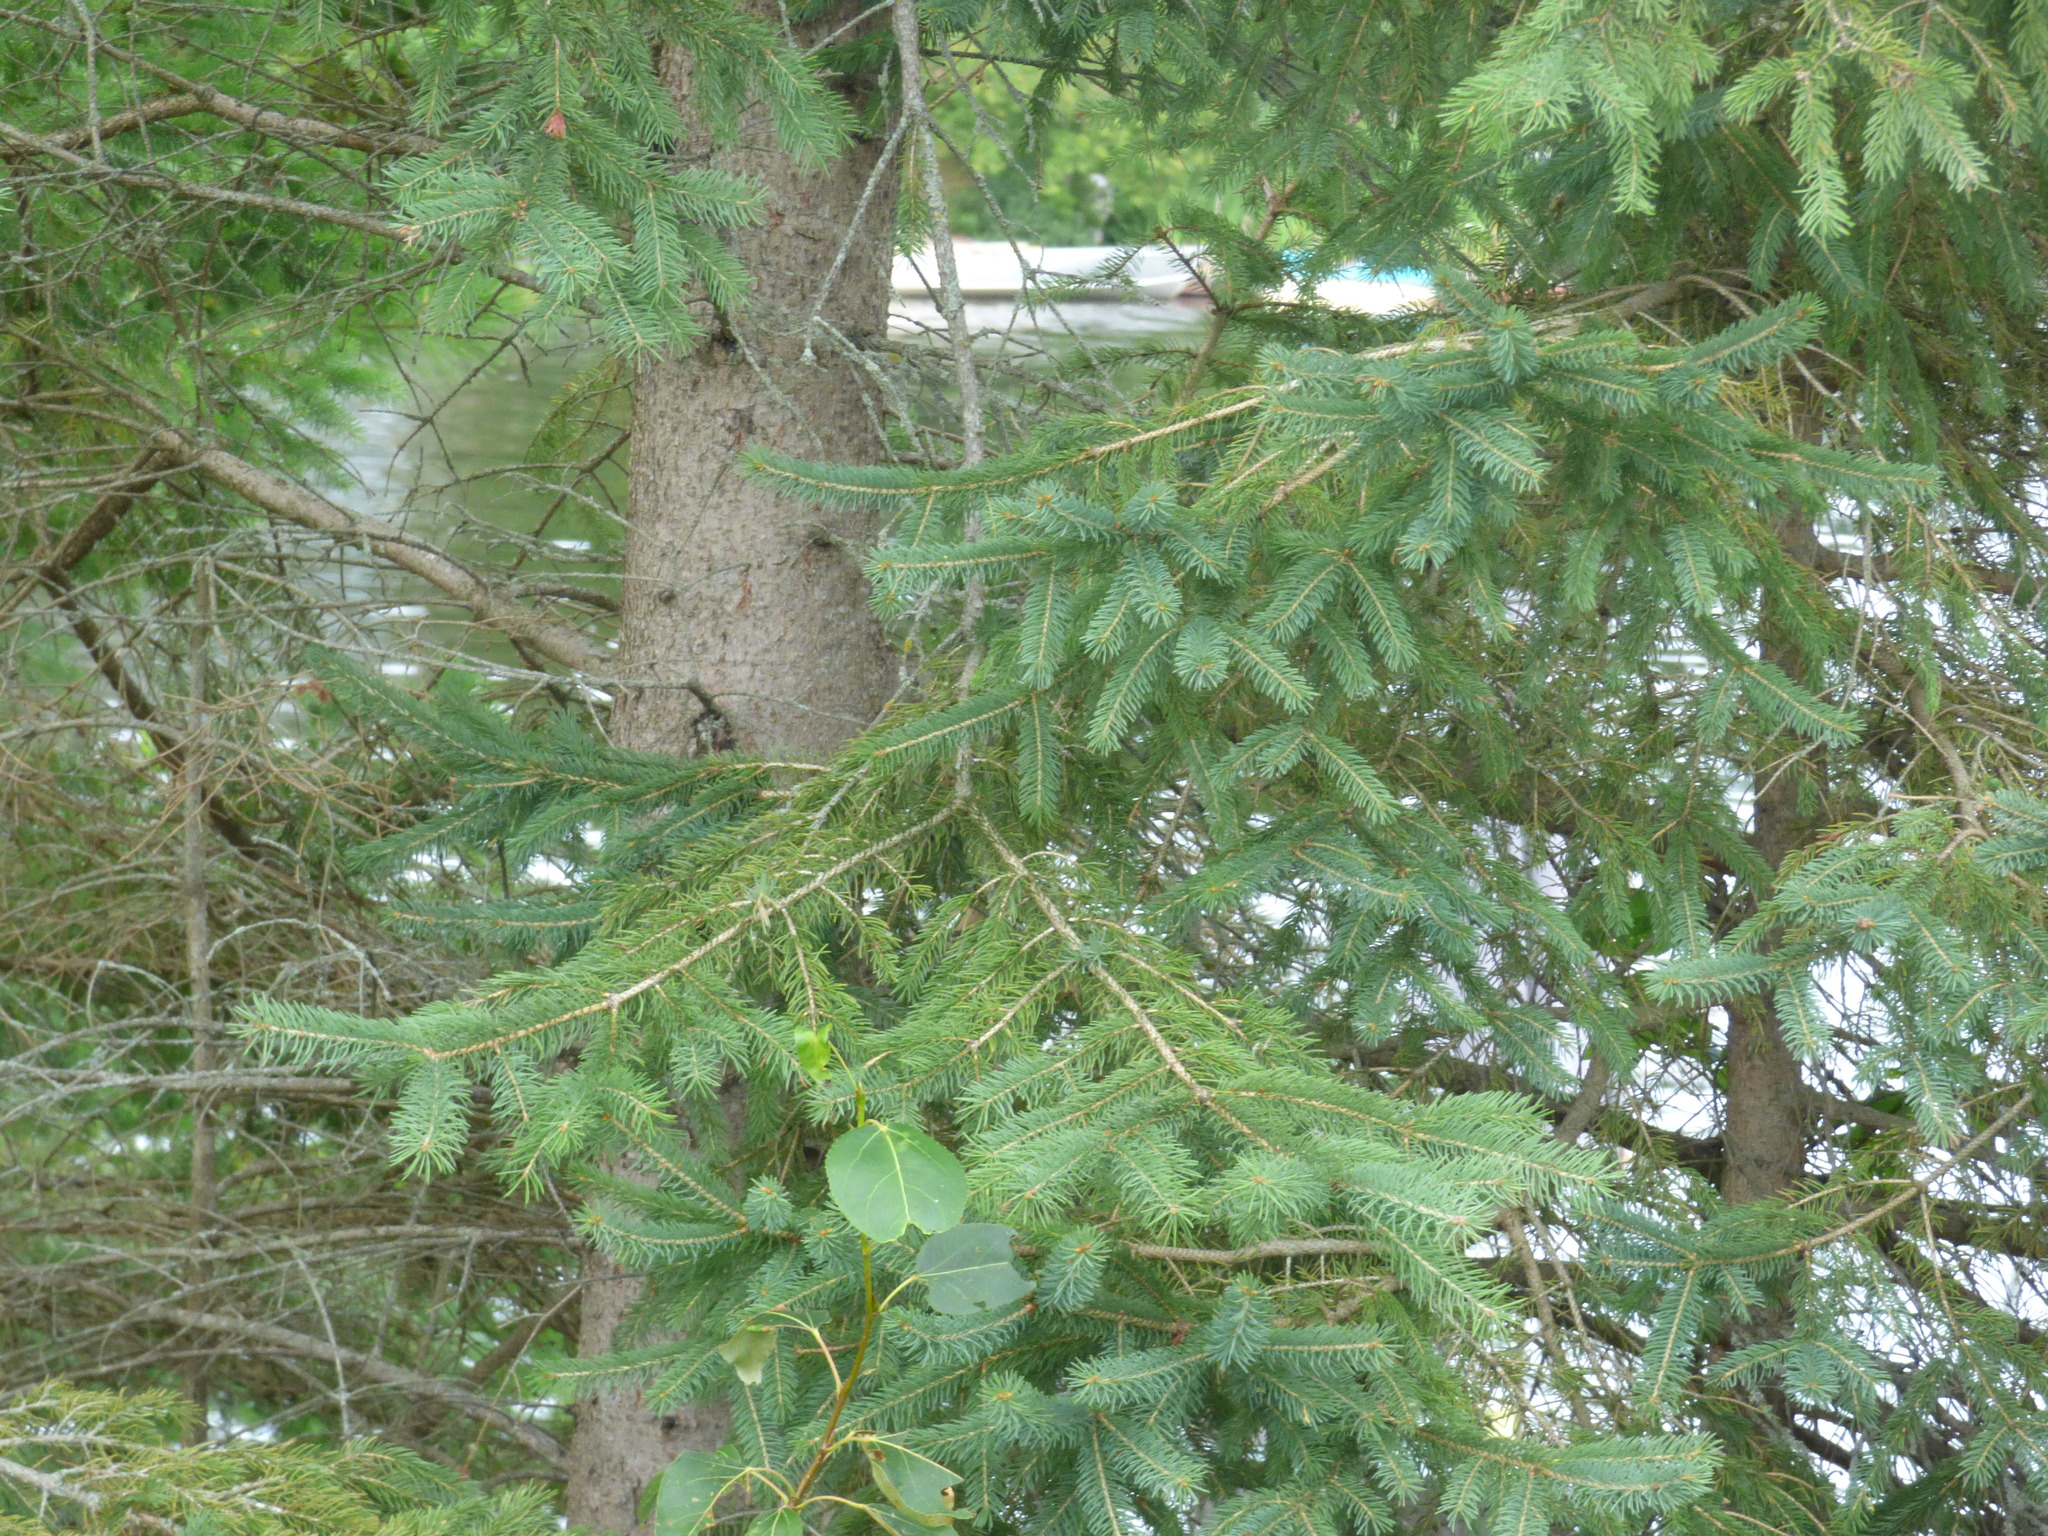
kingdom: Plantae
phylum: Tracheophyta
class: Pinopsida
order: Pinales
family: Pinaceae
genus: Picea
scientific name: Picea glauca
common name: White spruce
